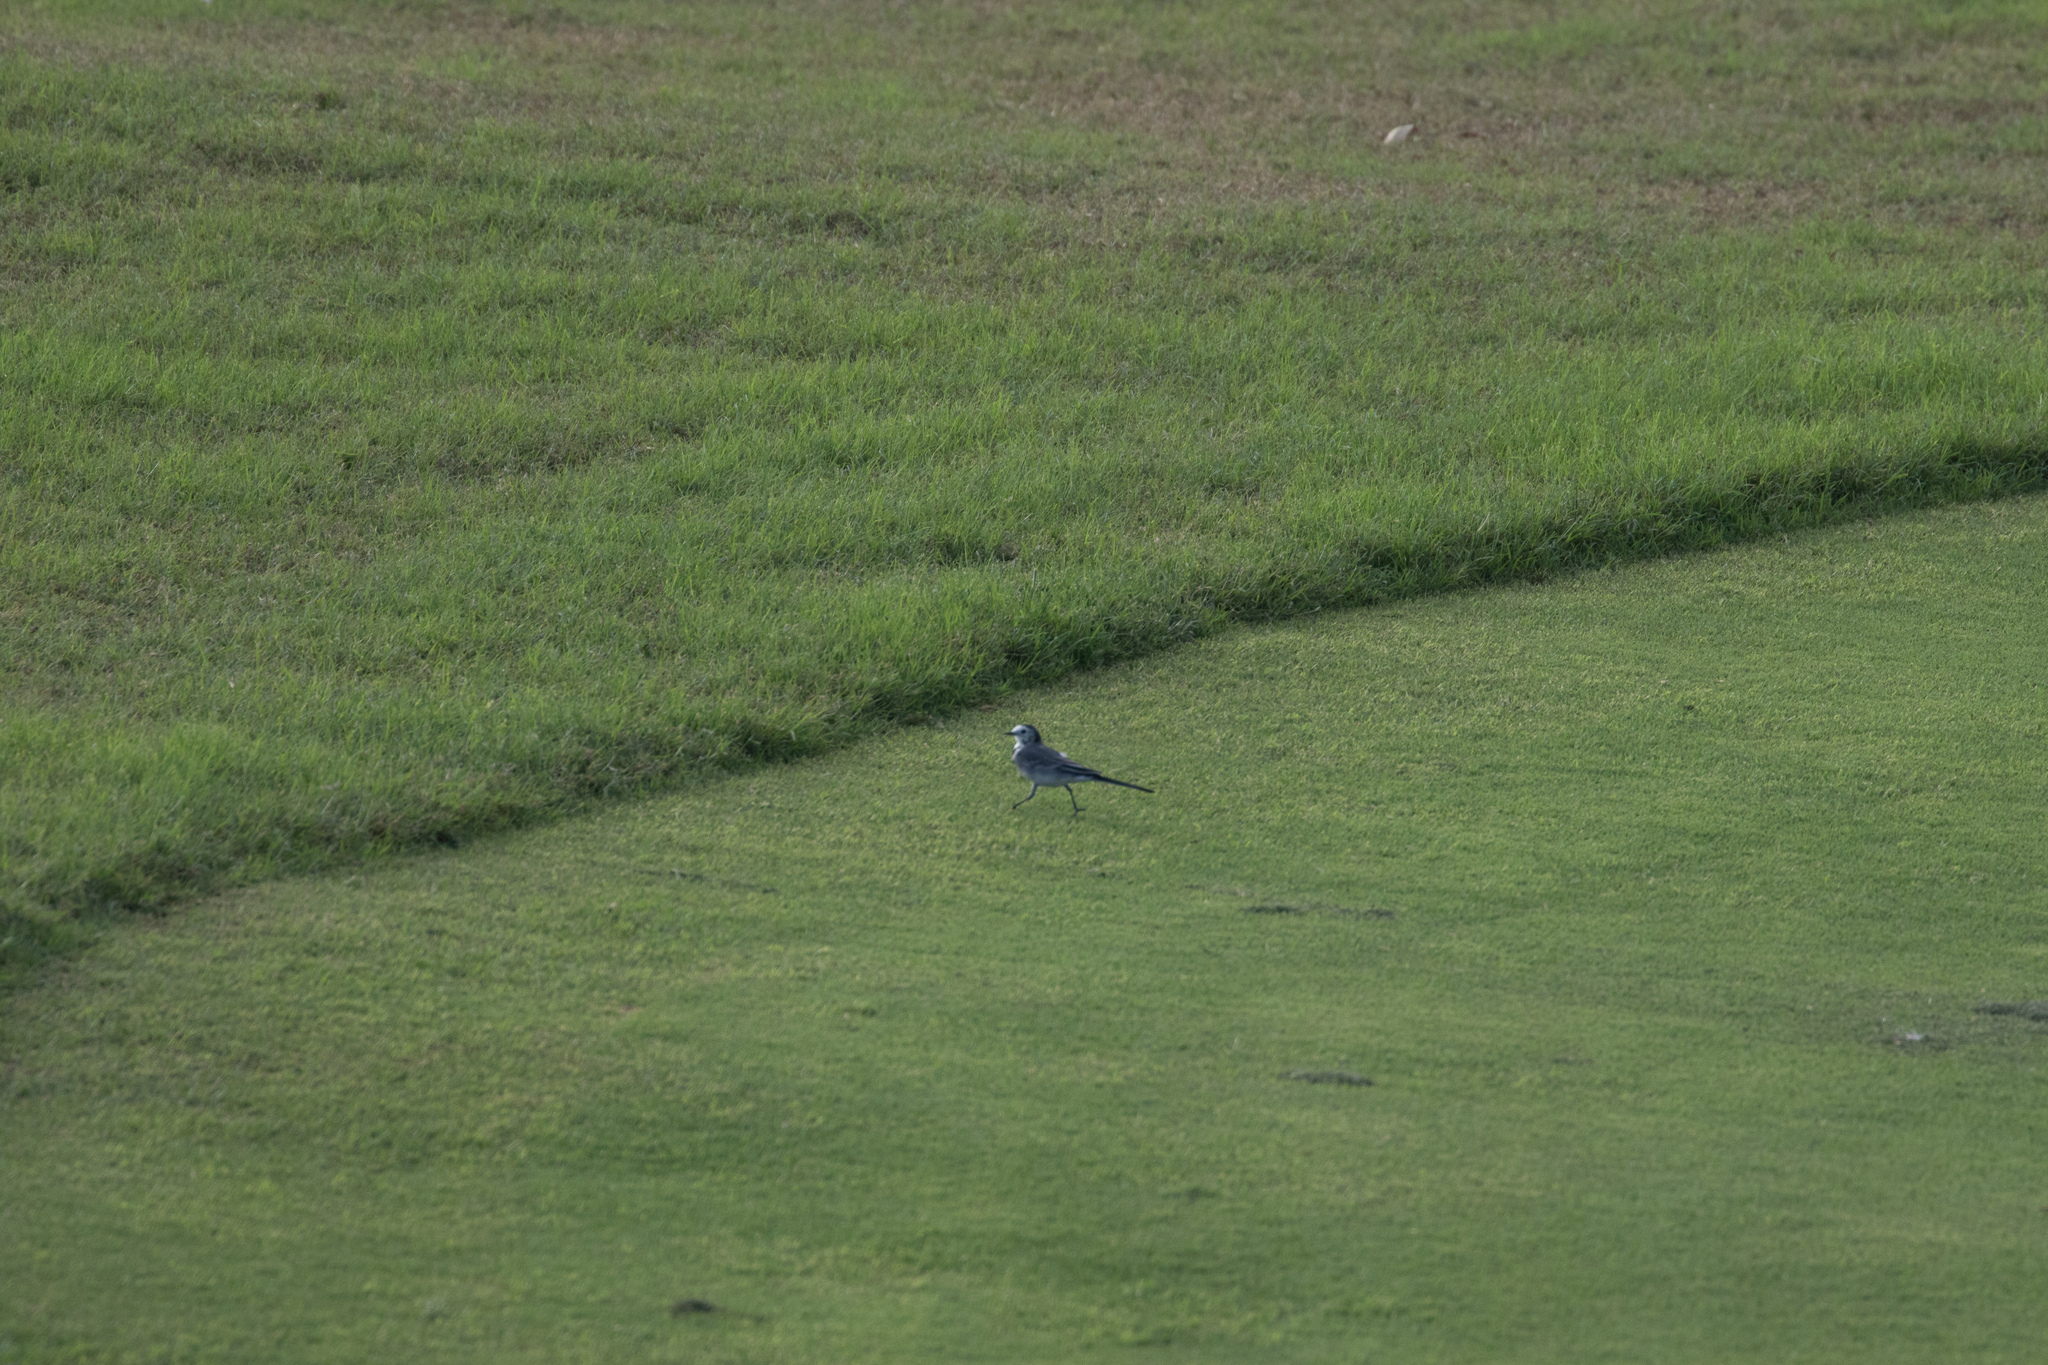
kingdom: Animalia
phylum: Chordata
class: Aves
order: Passeriformes
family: Motacillidae
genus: Motacilla
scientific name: Motacilla alba
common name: White wagtail
